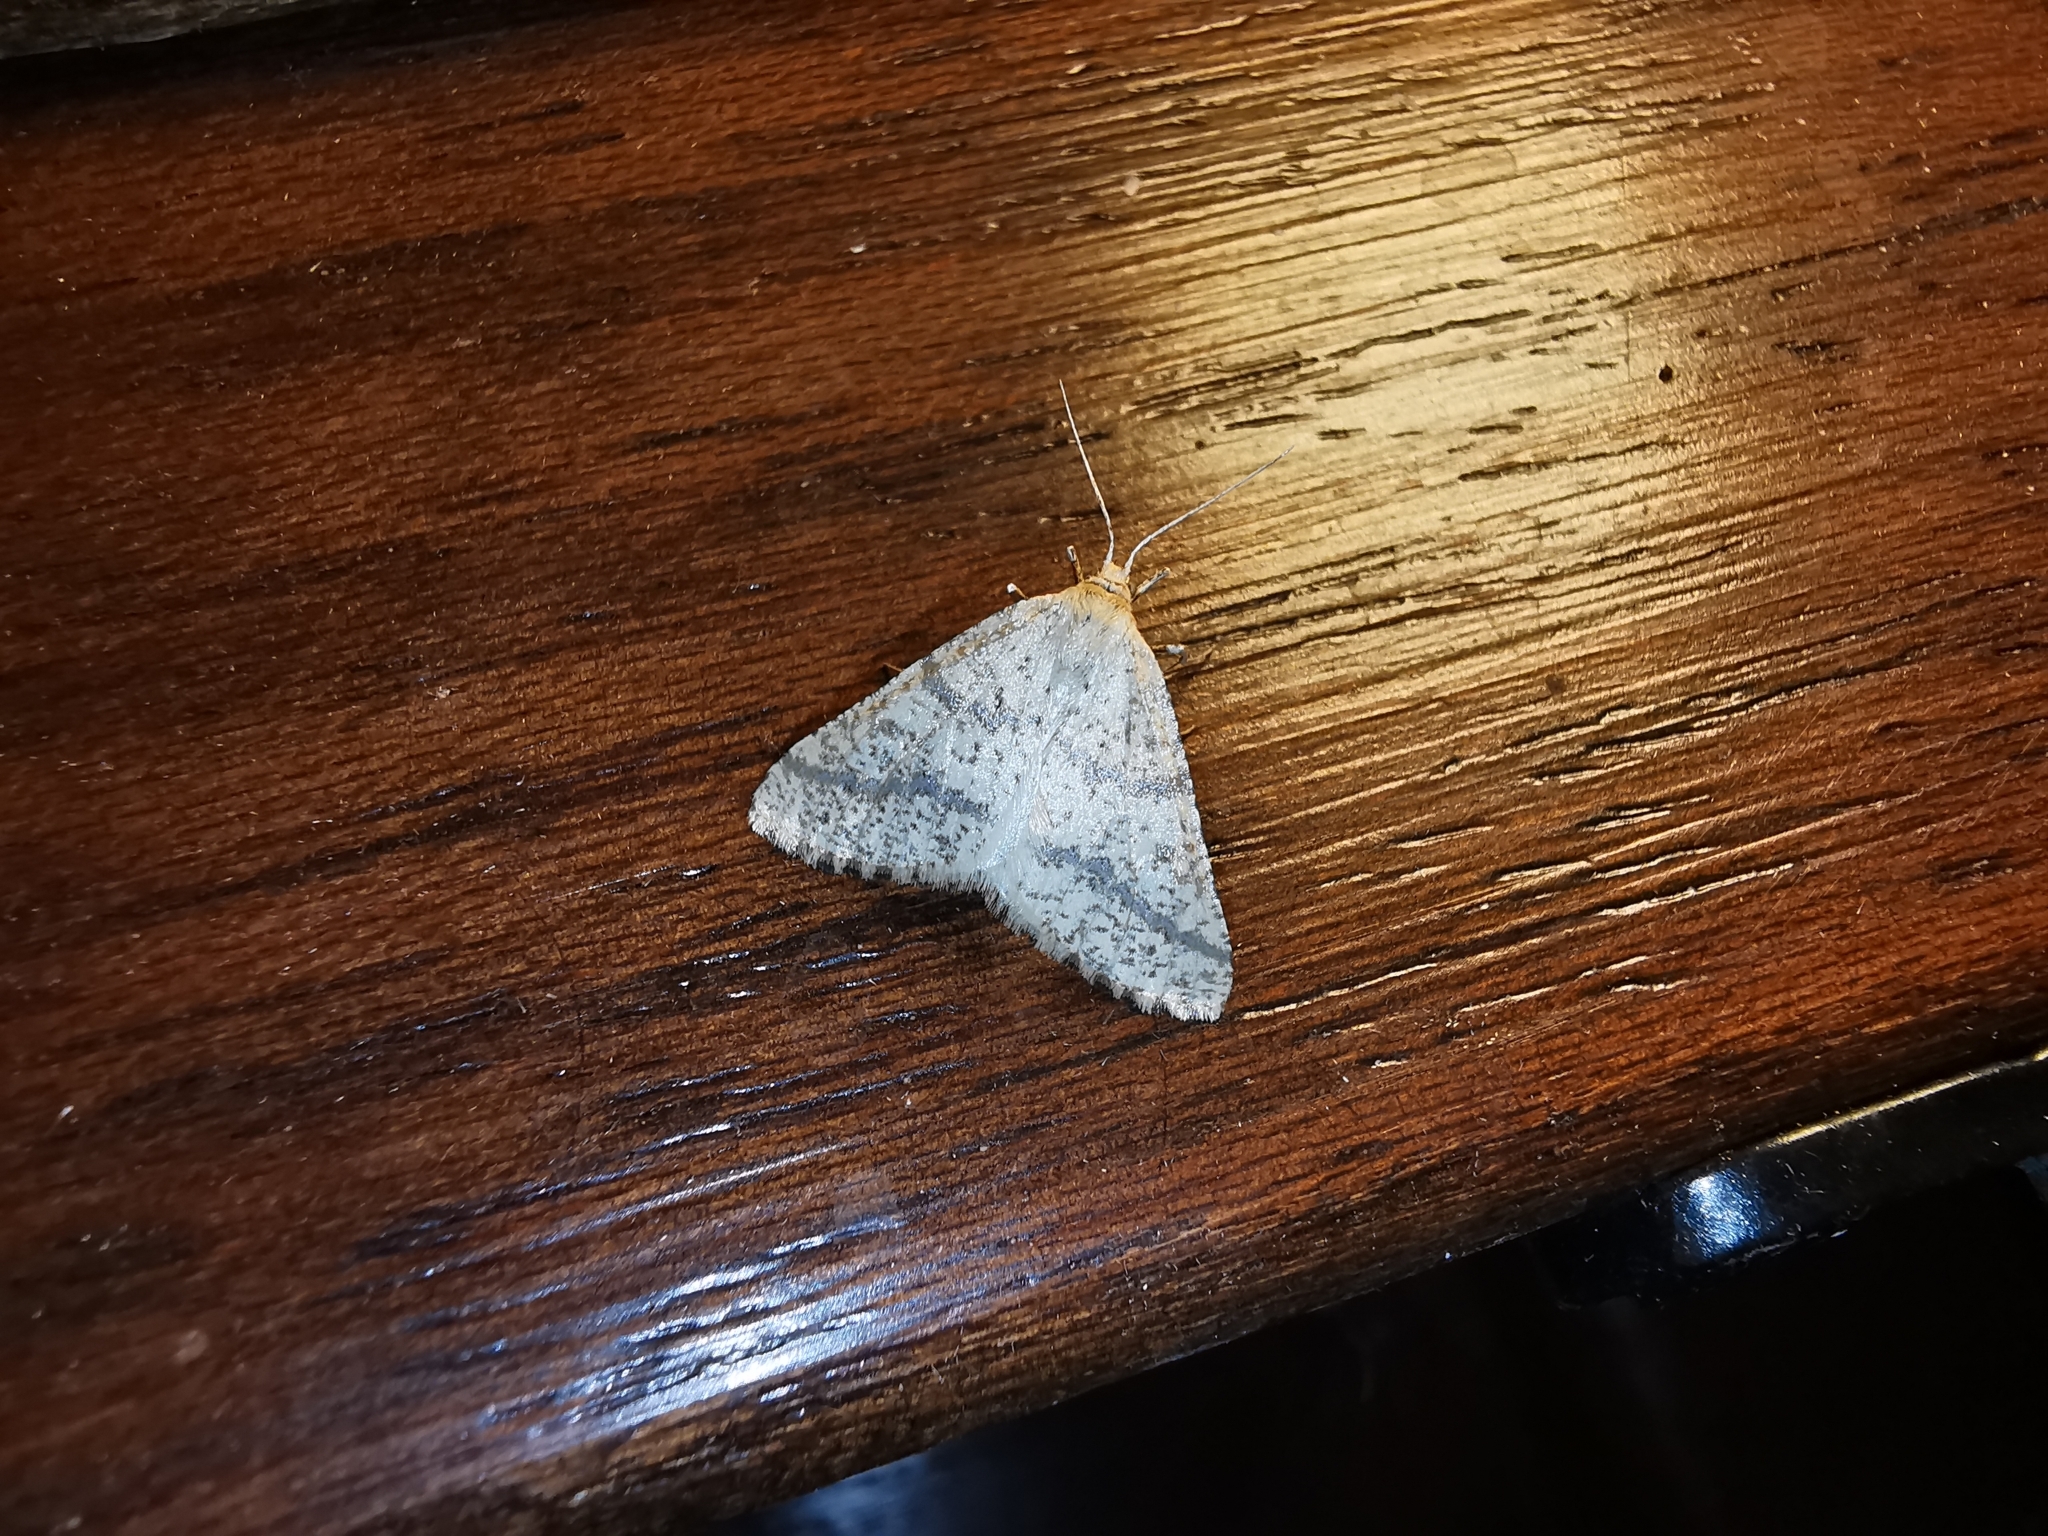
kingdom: Animalia
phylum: Arthropoda
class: Insecta
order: Lepidoptera
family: Geometridae
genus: Aspitates
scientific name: Aspitates ochrearia
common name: Yellow belle
